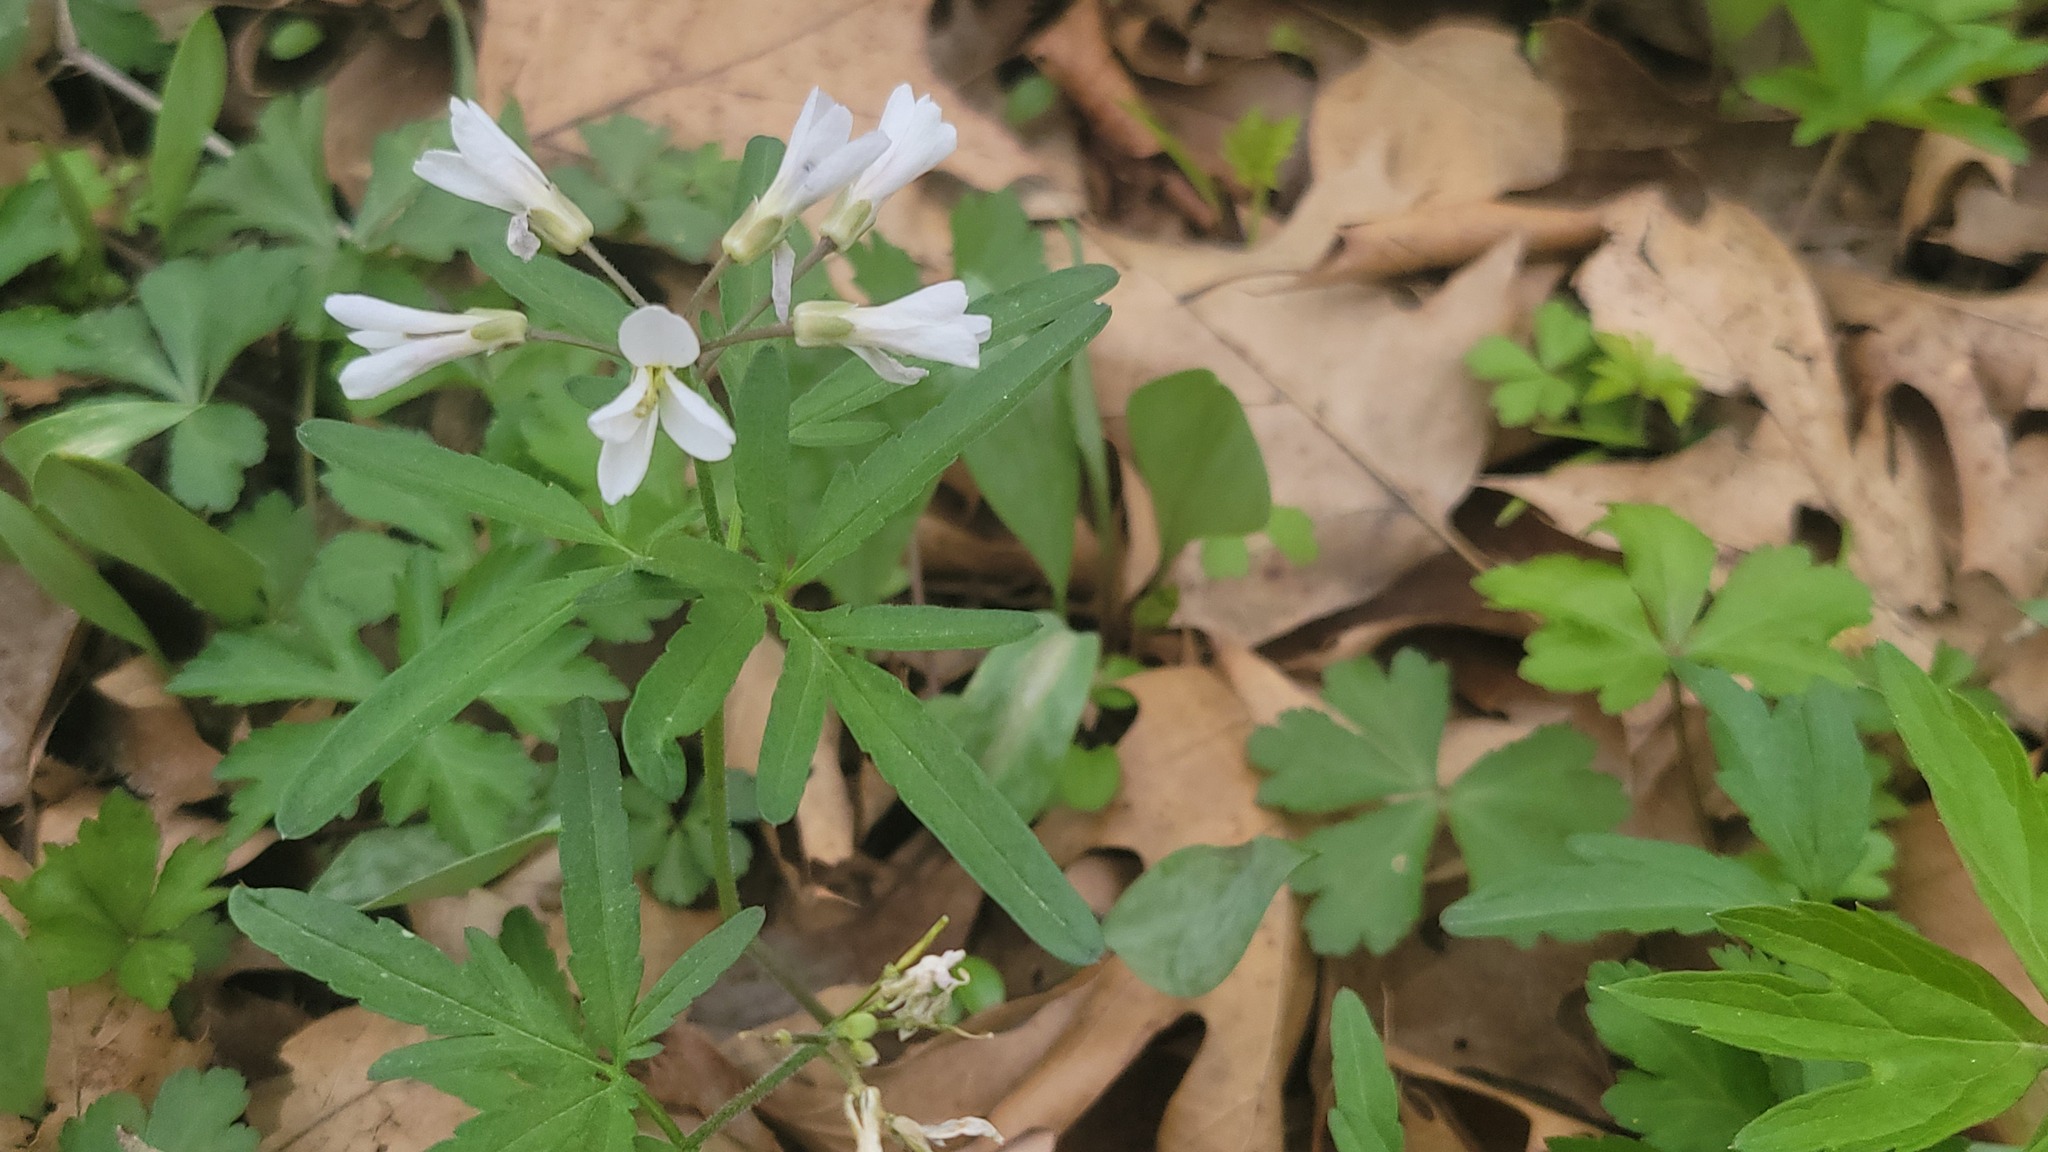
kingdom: Plantae
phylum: Tracheophyta
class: Magnoliopsida
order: Brassicales
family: Brassicaceae
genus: Cardamine
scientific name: Cardamine concatenata
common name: Cut-leaf toothcup
